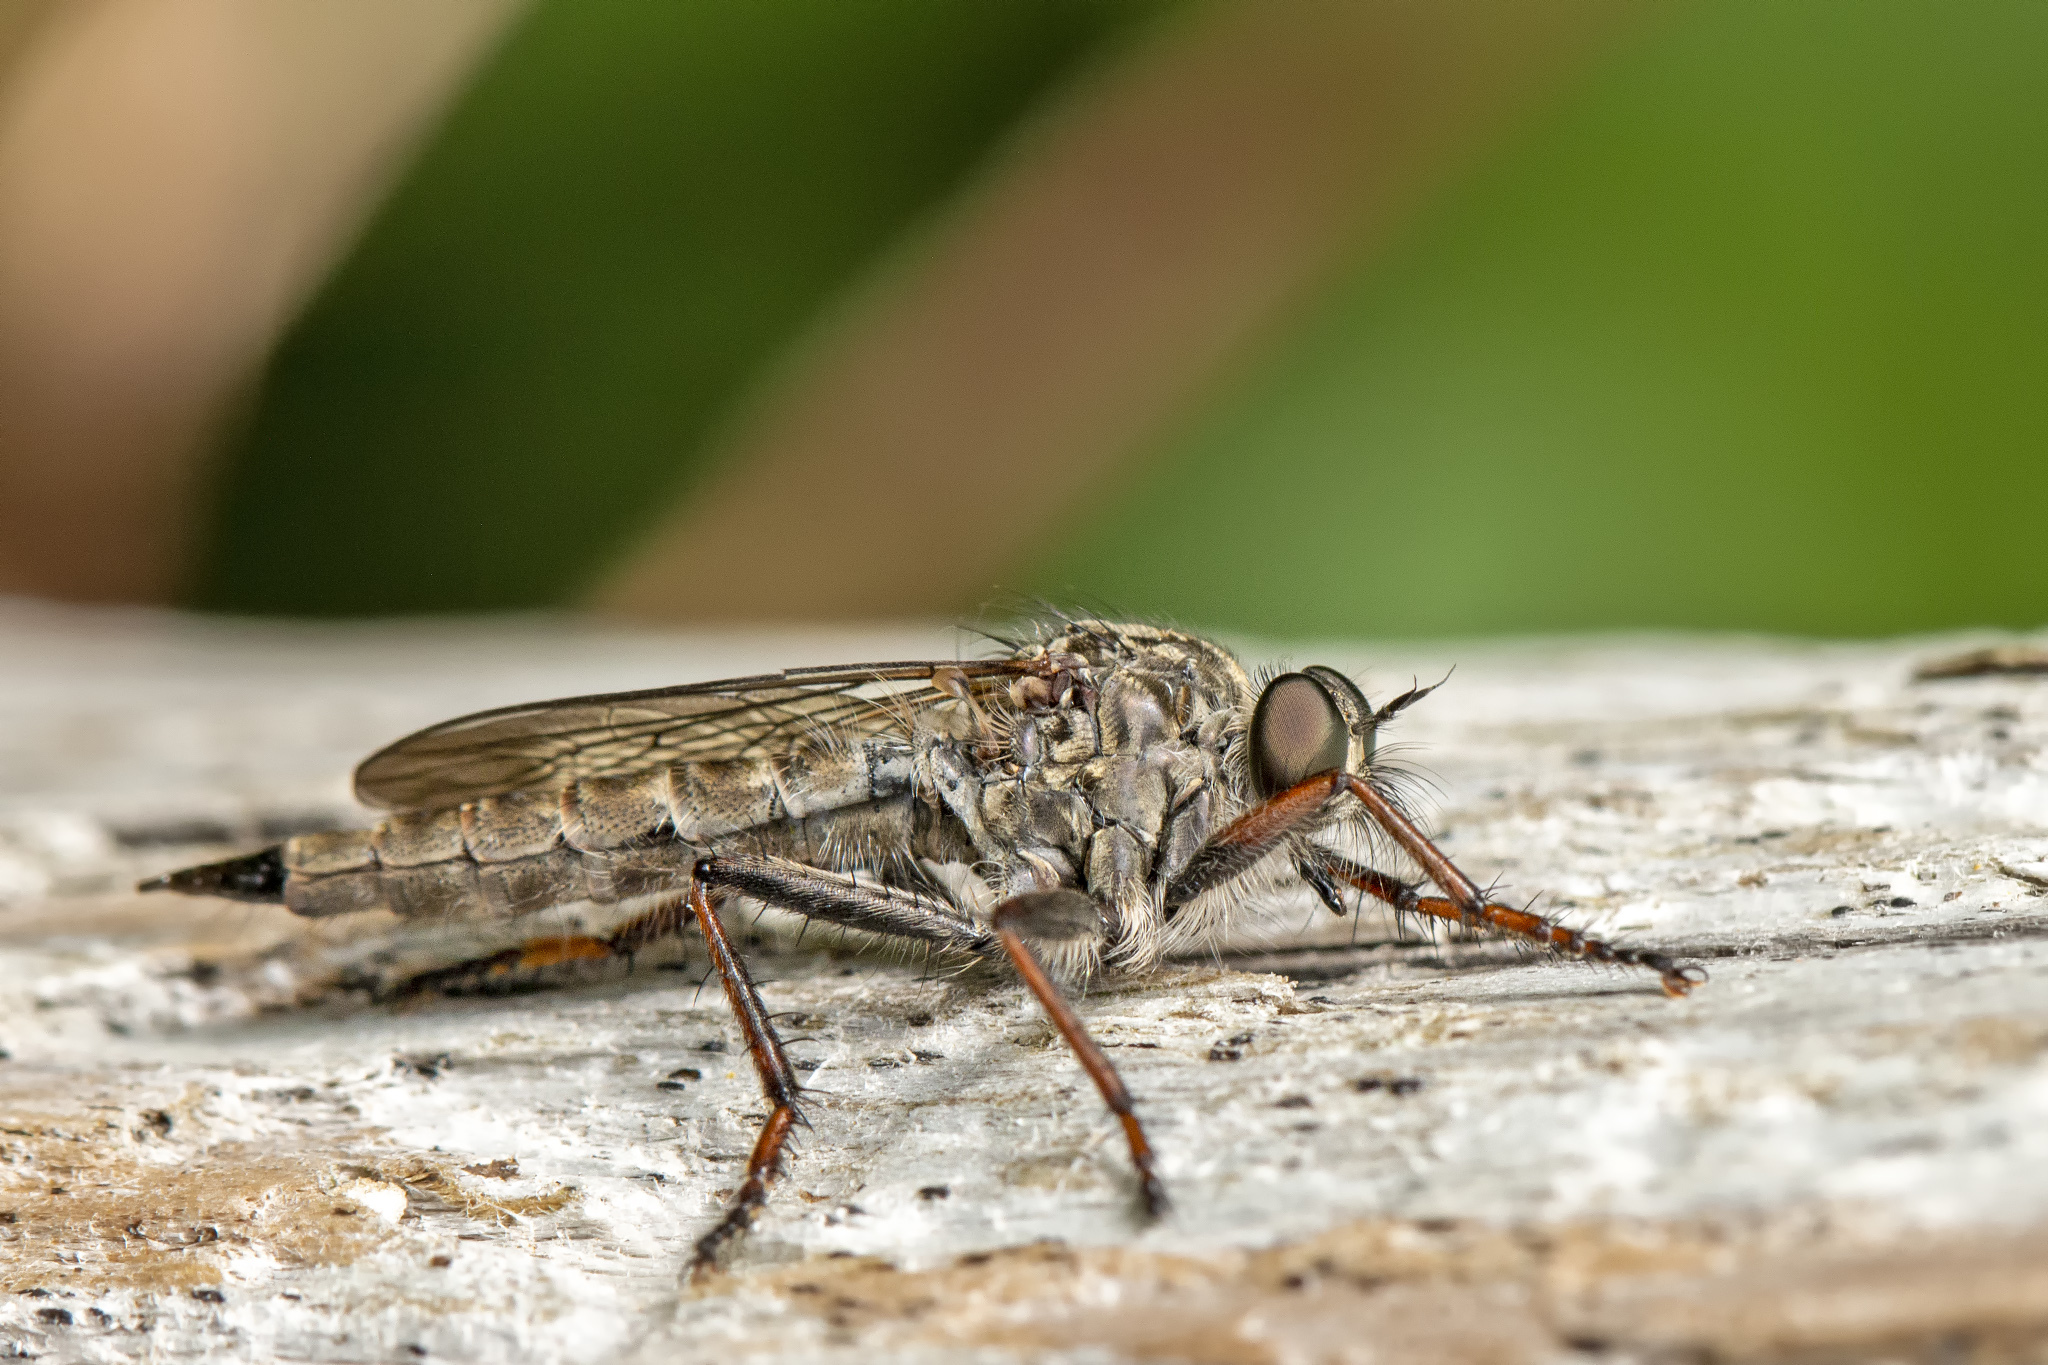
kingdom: Animalia
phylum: Arthropoda
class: Insecta
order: Diptera
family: Asilidae
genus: Machimus
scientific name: Machimus atricapillus
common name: Kite-tailed robberfly
